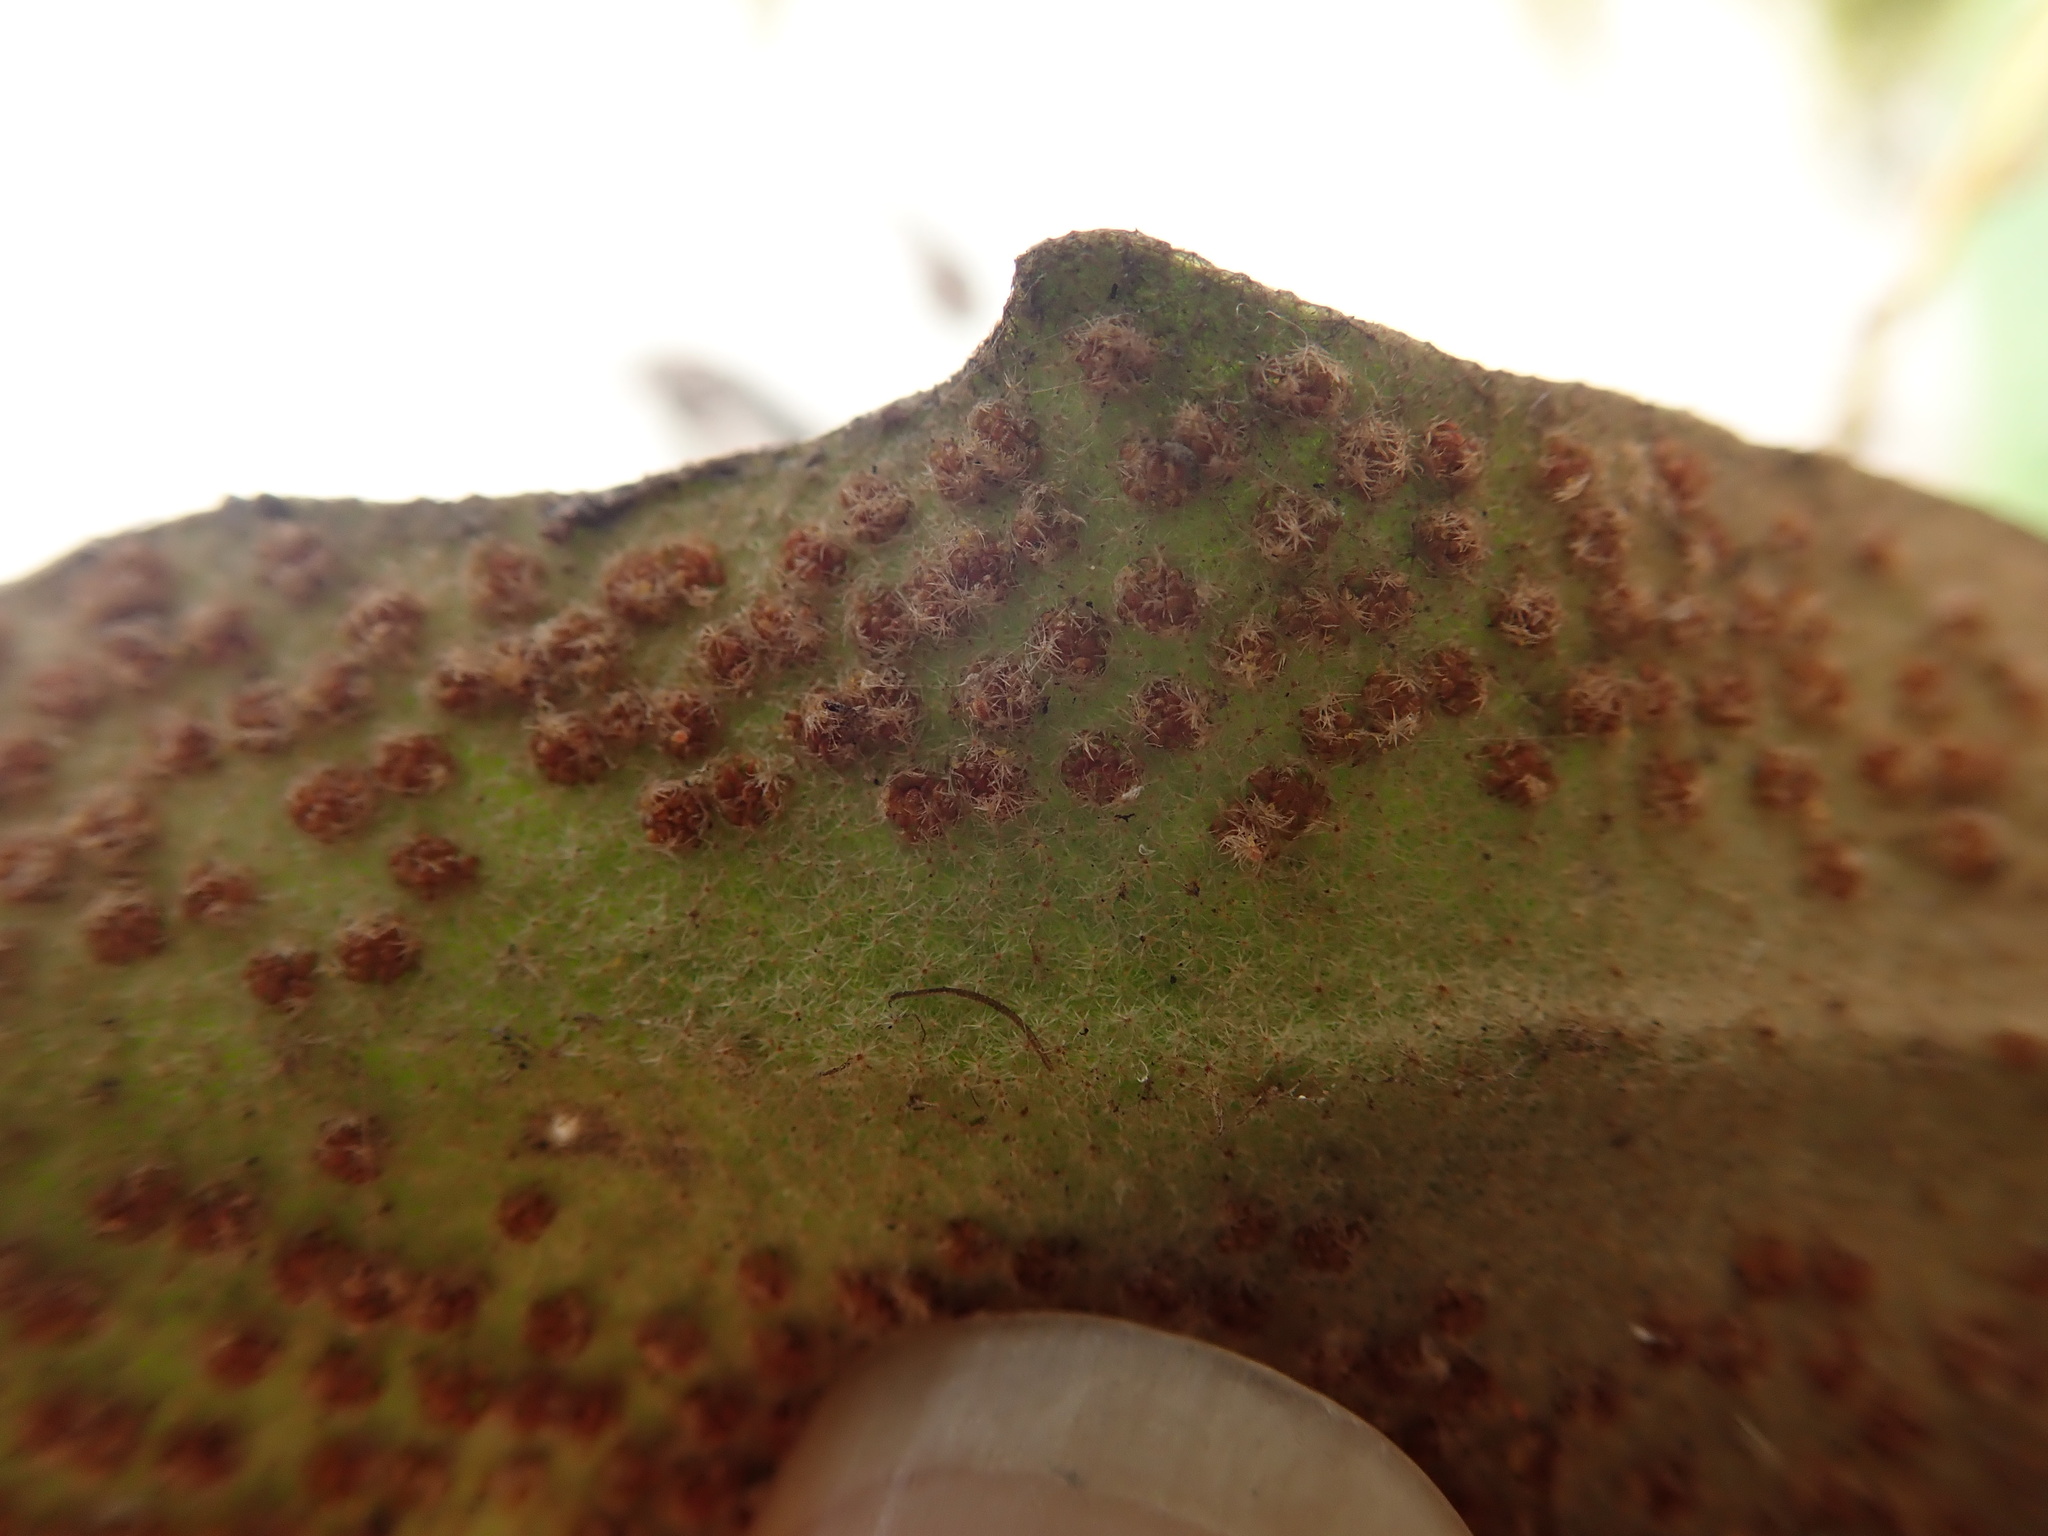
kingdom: Plantae
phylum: Tracheophyta
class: Polypodiopsida
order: Polypodiales
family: Polypodiaceae
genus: Pyrrosia
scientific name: Pyrrosia polydactyla
